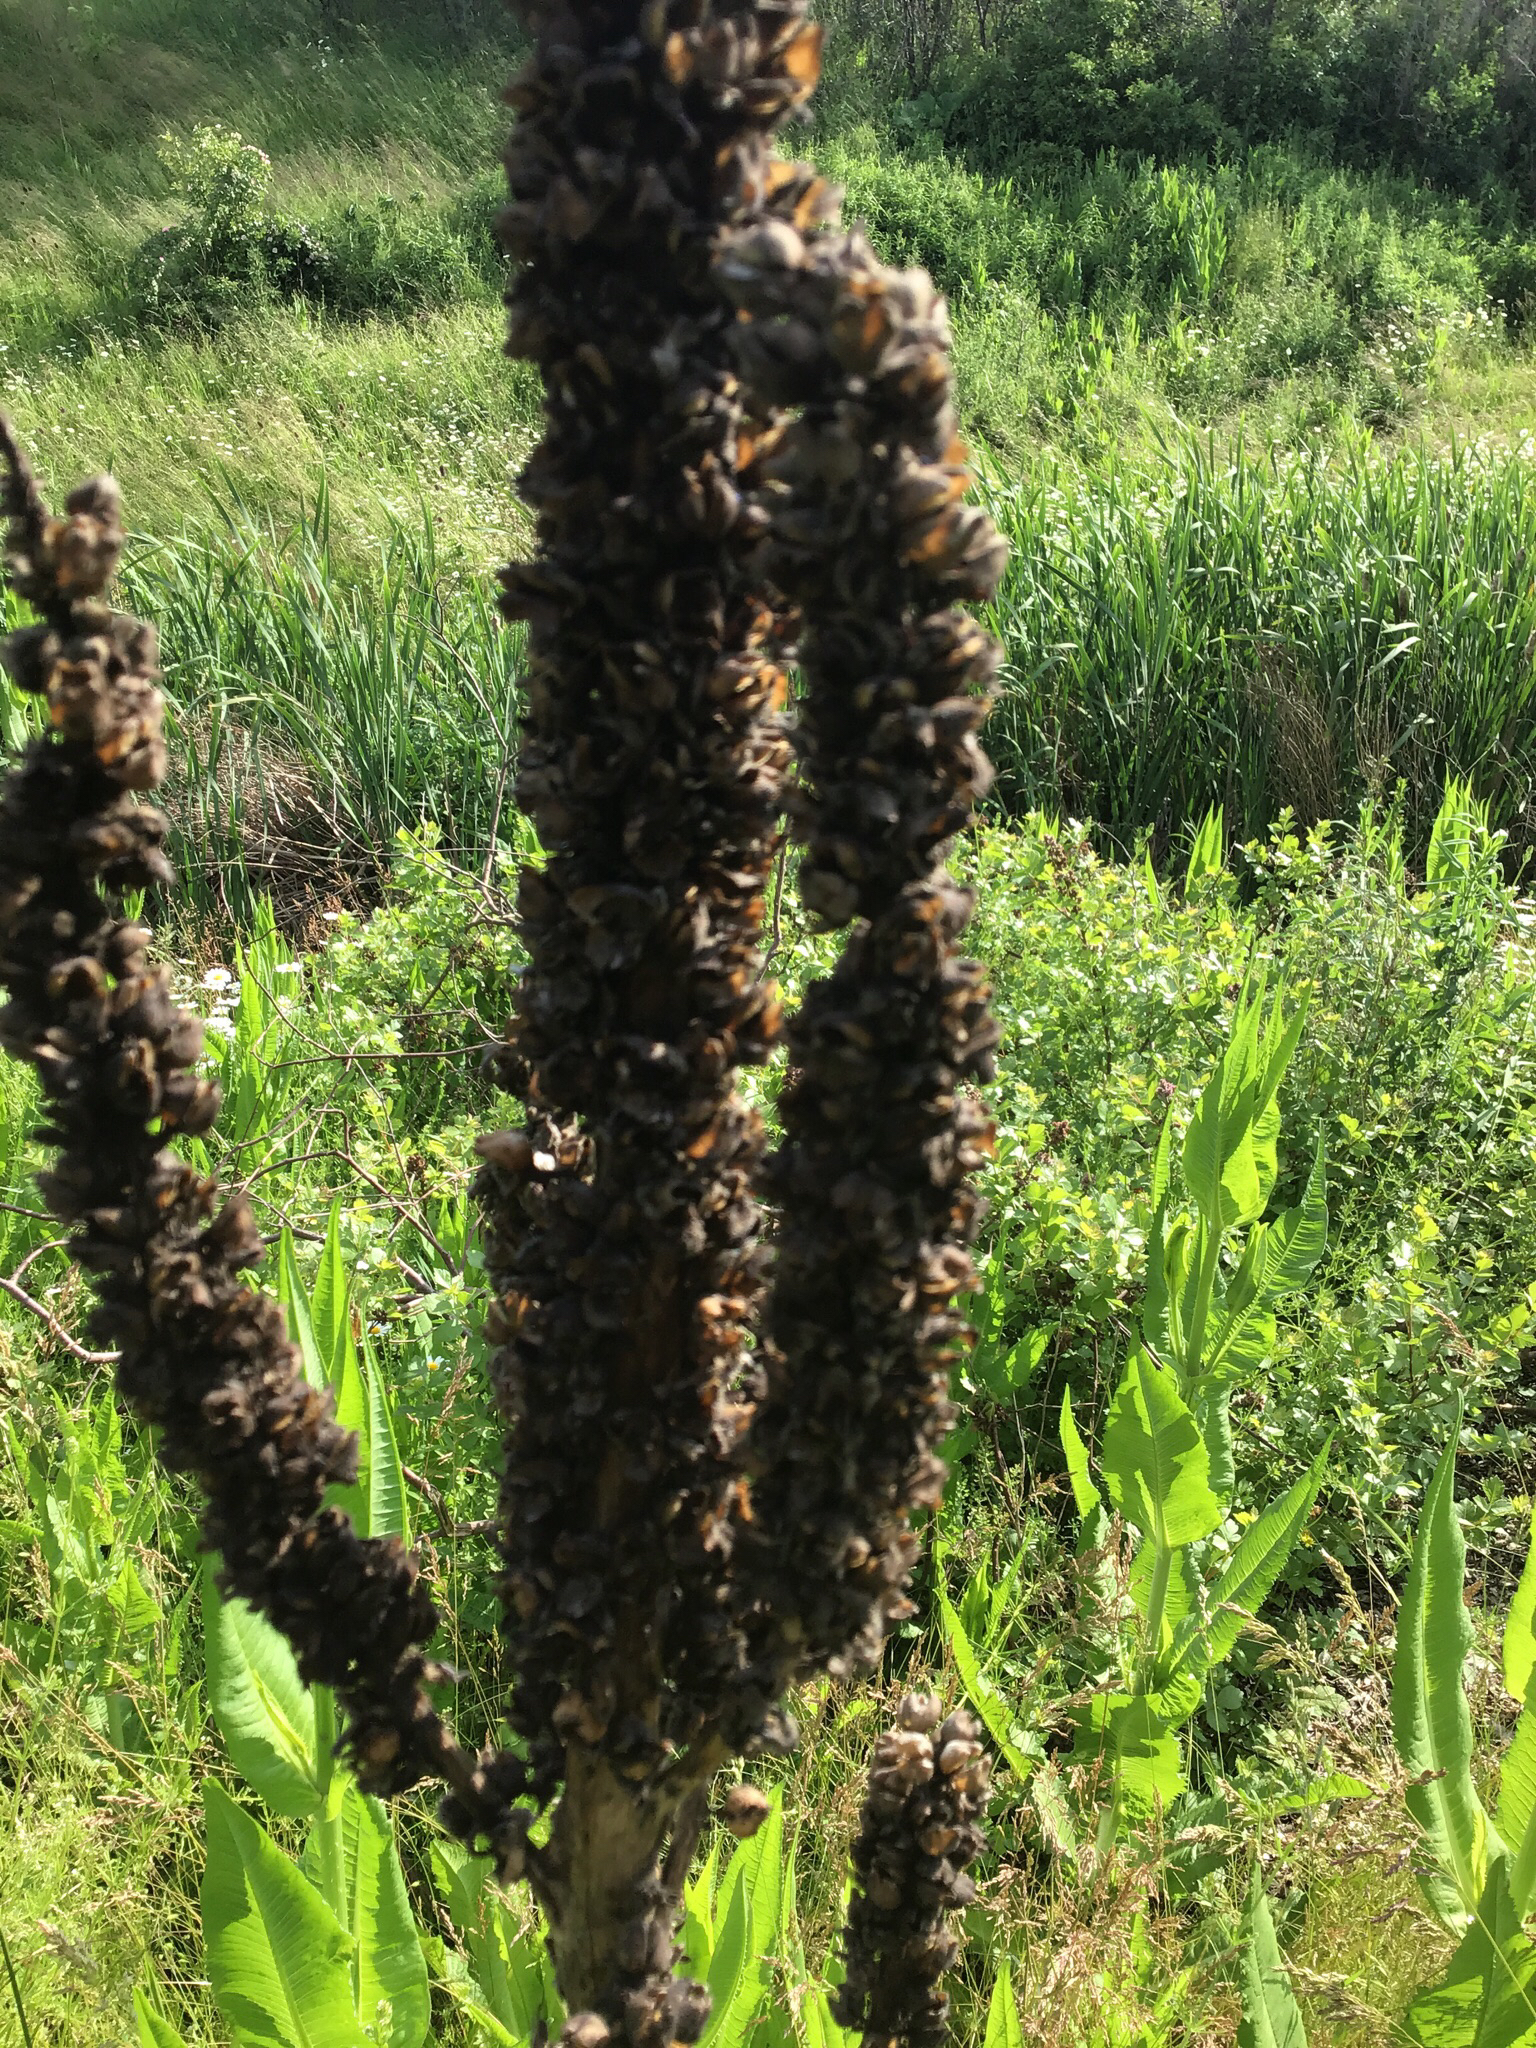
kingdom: Plantae
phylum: Tracheophyta
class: Magnoliopsida
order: Lamiales
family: Scrophulariaceae
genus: Verbascum
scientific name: Verbascum thapsus
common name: Common mullein
